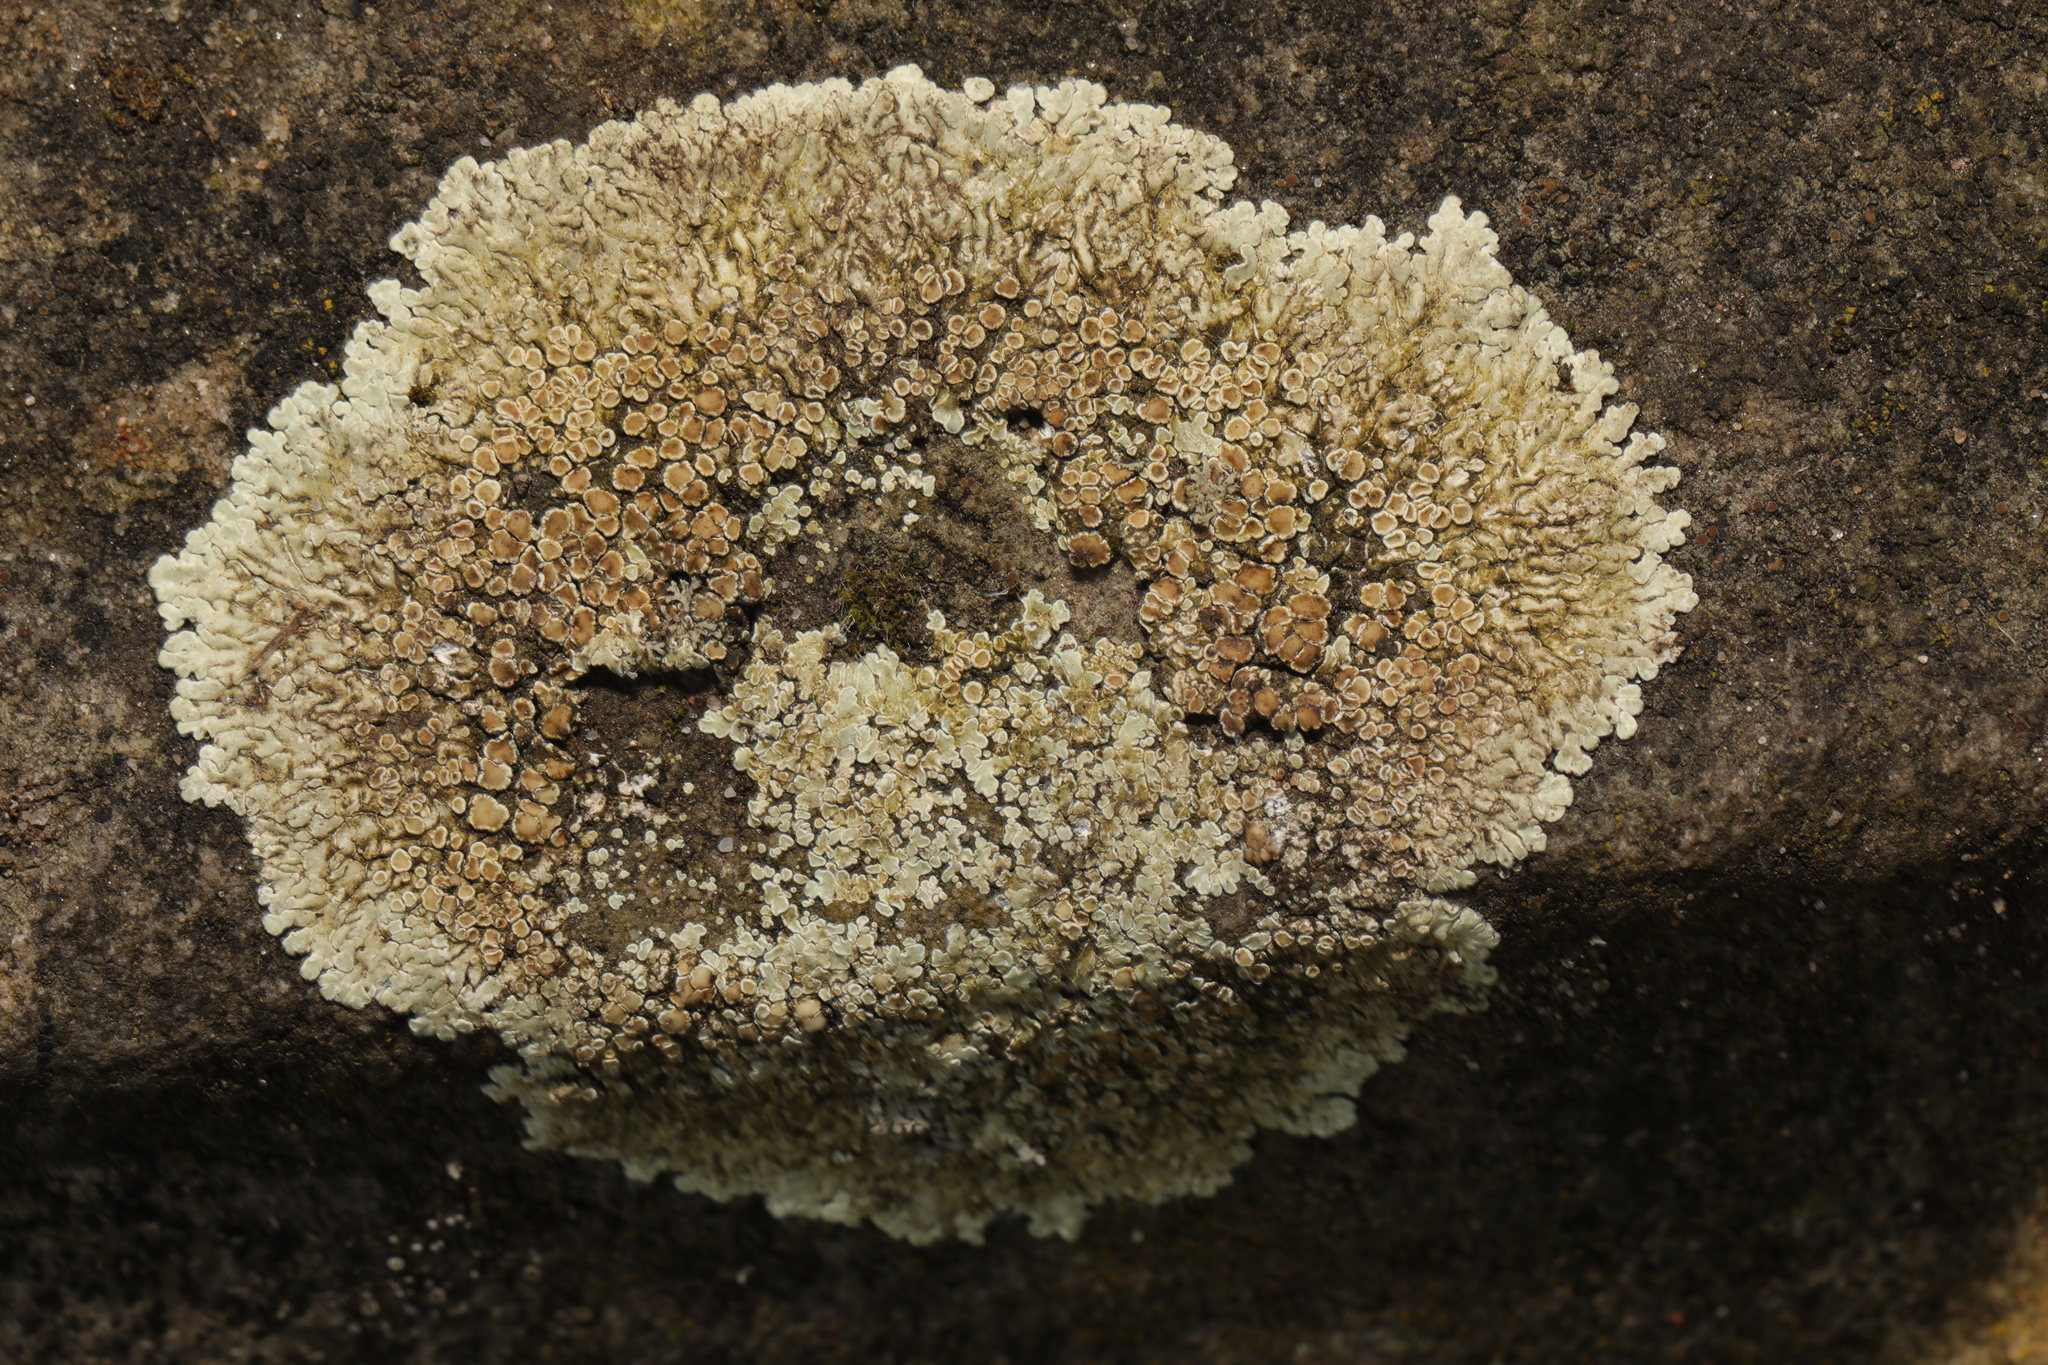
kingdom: Fungi
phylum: Ascomycota
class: Lecanoromycetes
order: Lecanorales
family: Lecanoraceae
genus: Protoparmeliopsis
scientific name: Protoparmeliopsis muralis
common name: Stonewall rim lichen
